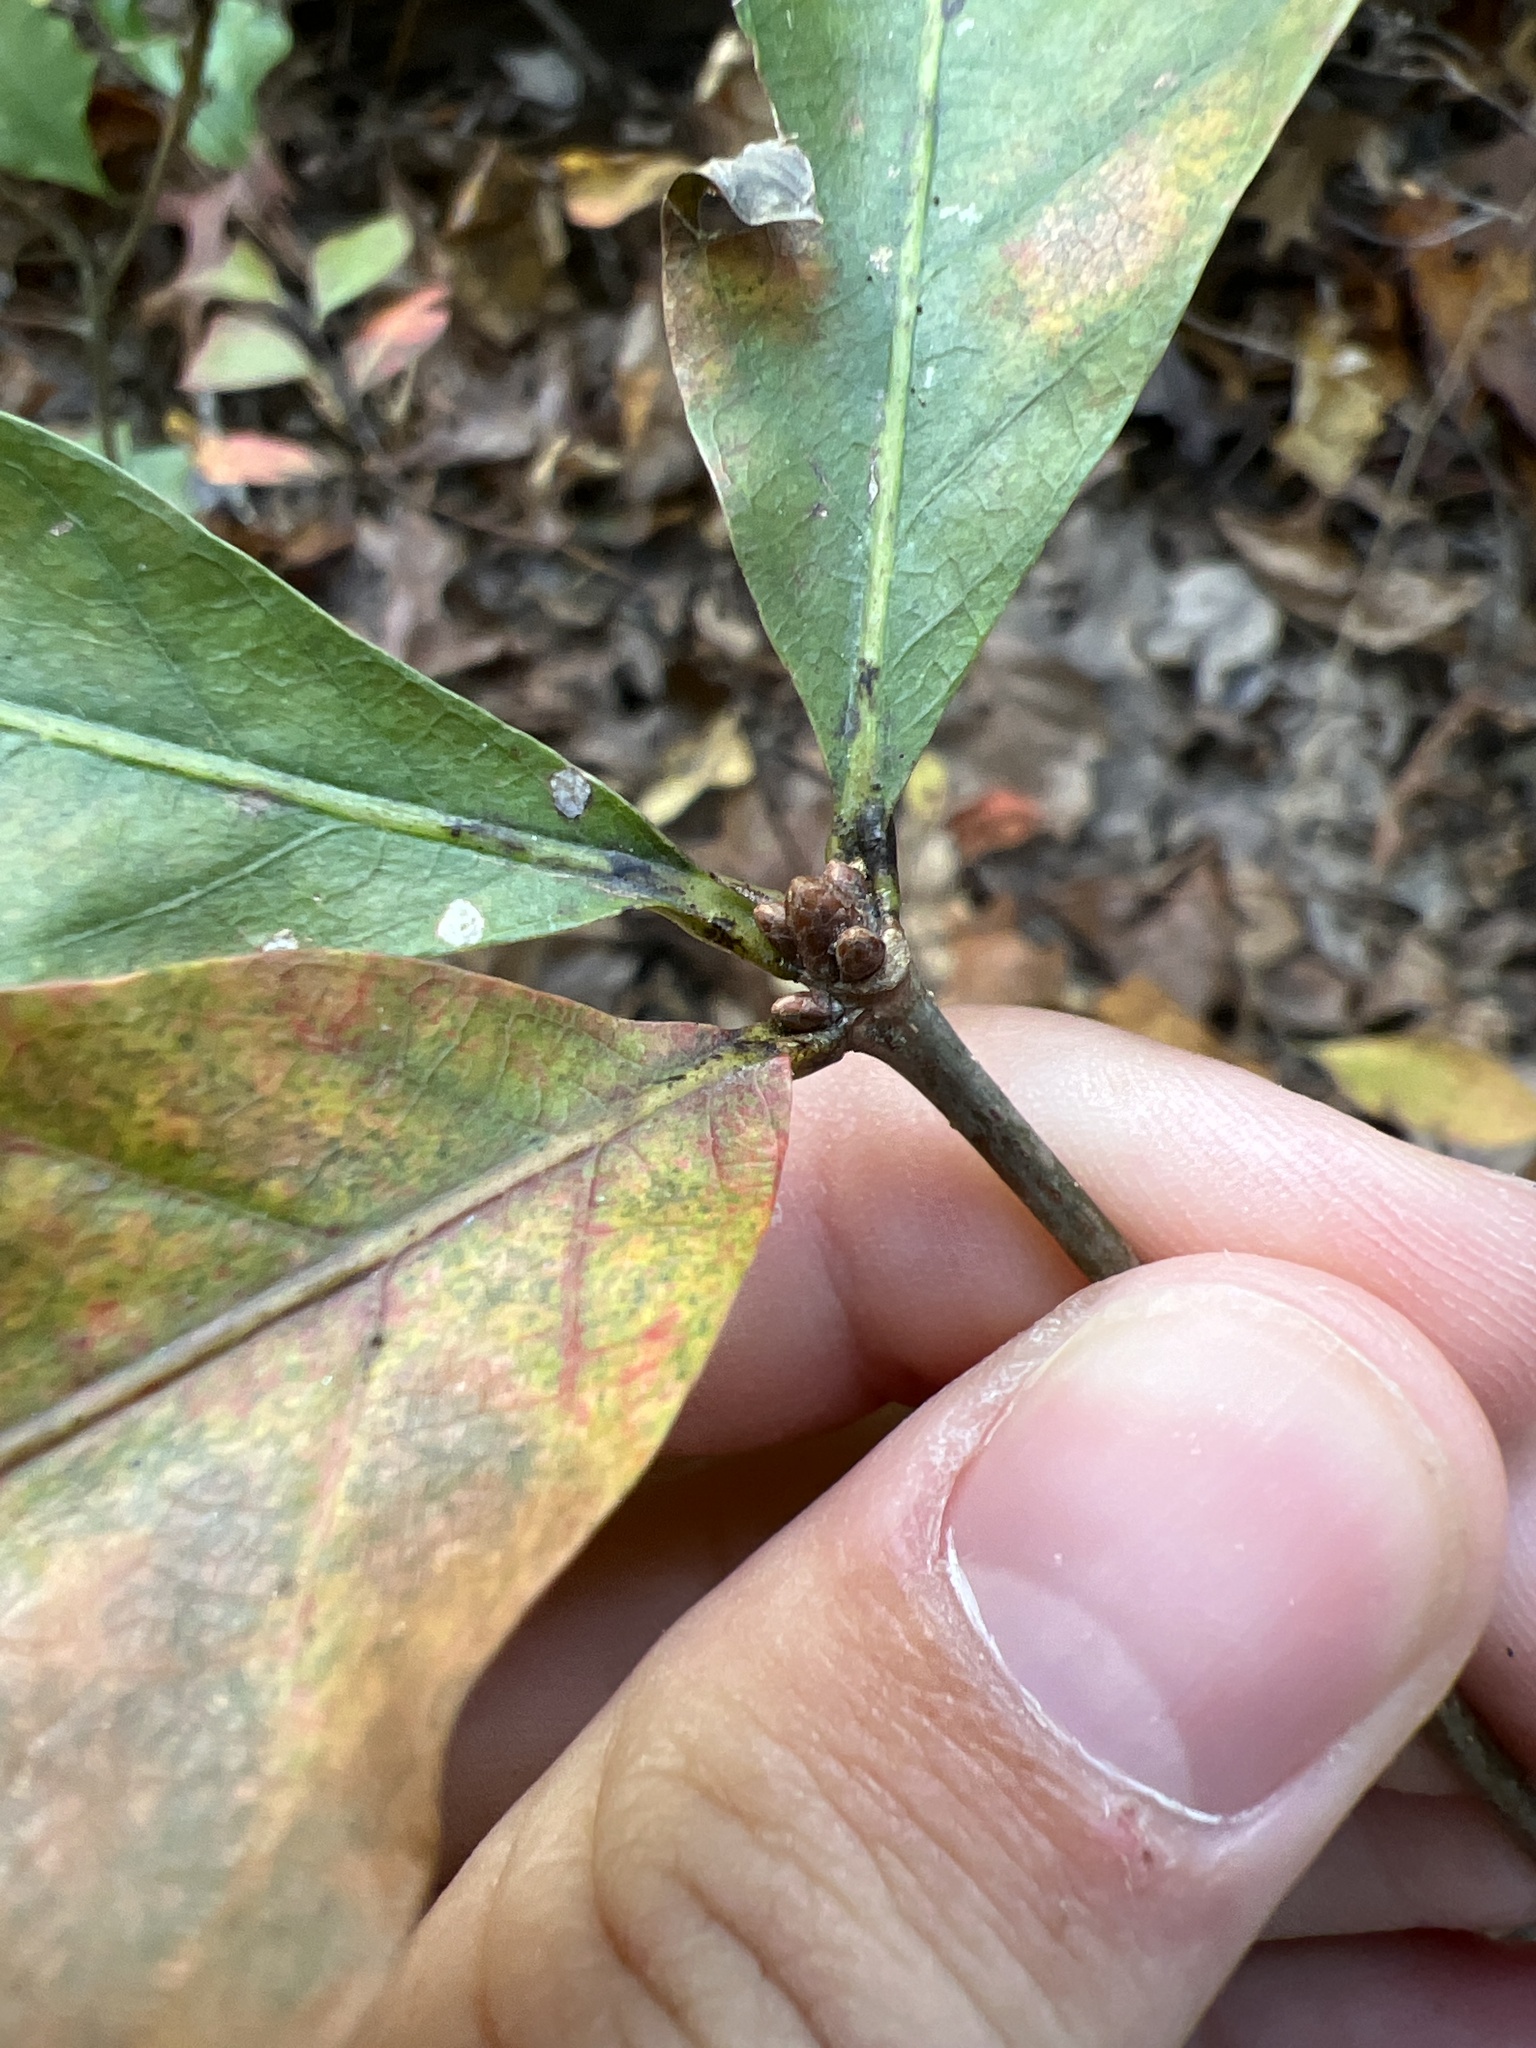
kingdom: Plantae
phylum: Tracheophyta
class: Magnoliopsida
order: Fagales
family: Fagaceae
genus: Quercus
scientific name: Quercus alba
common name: White oak
